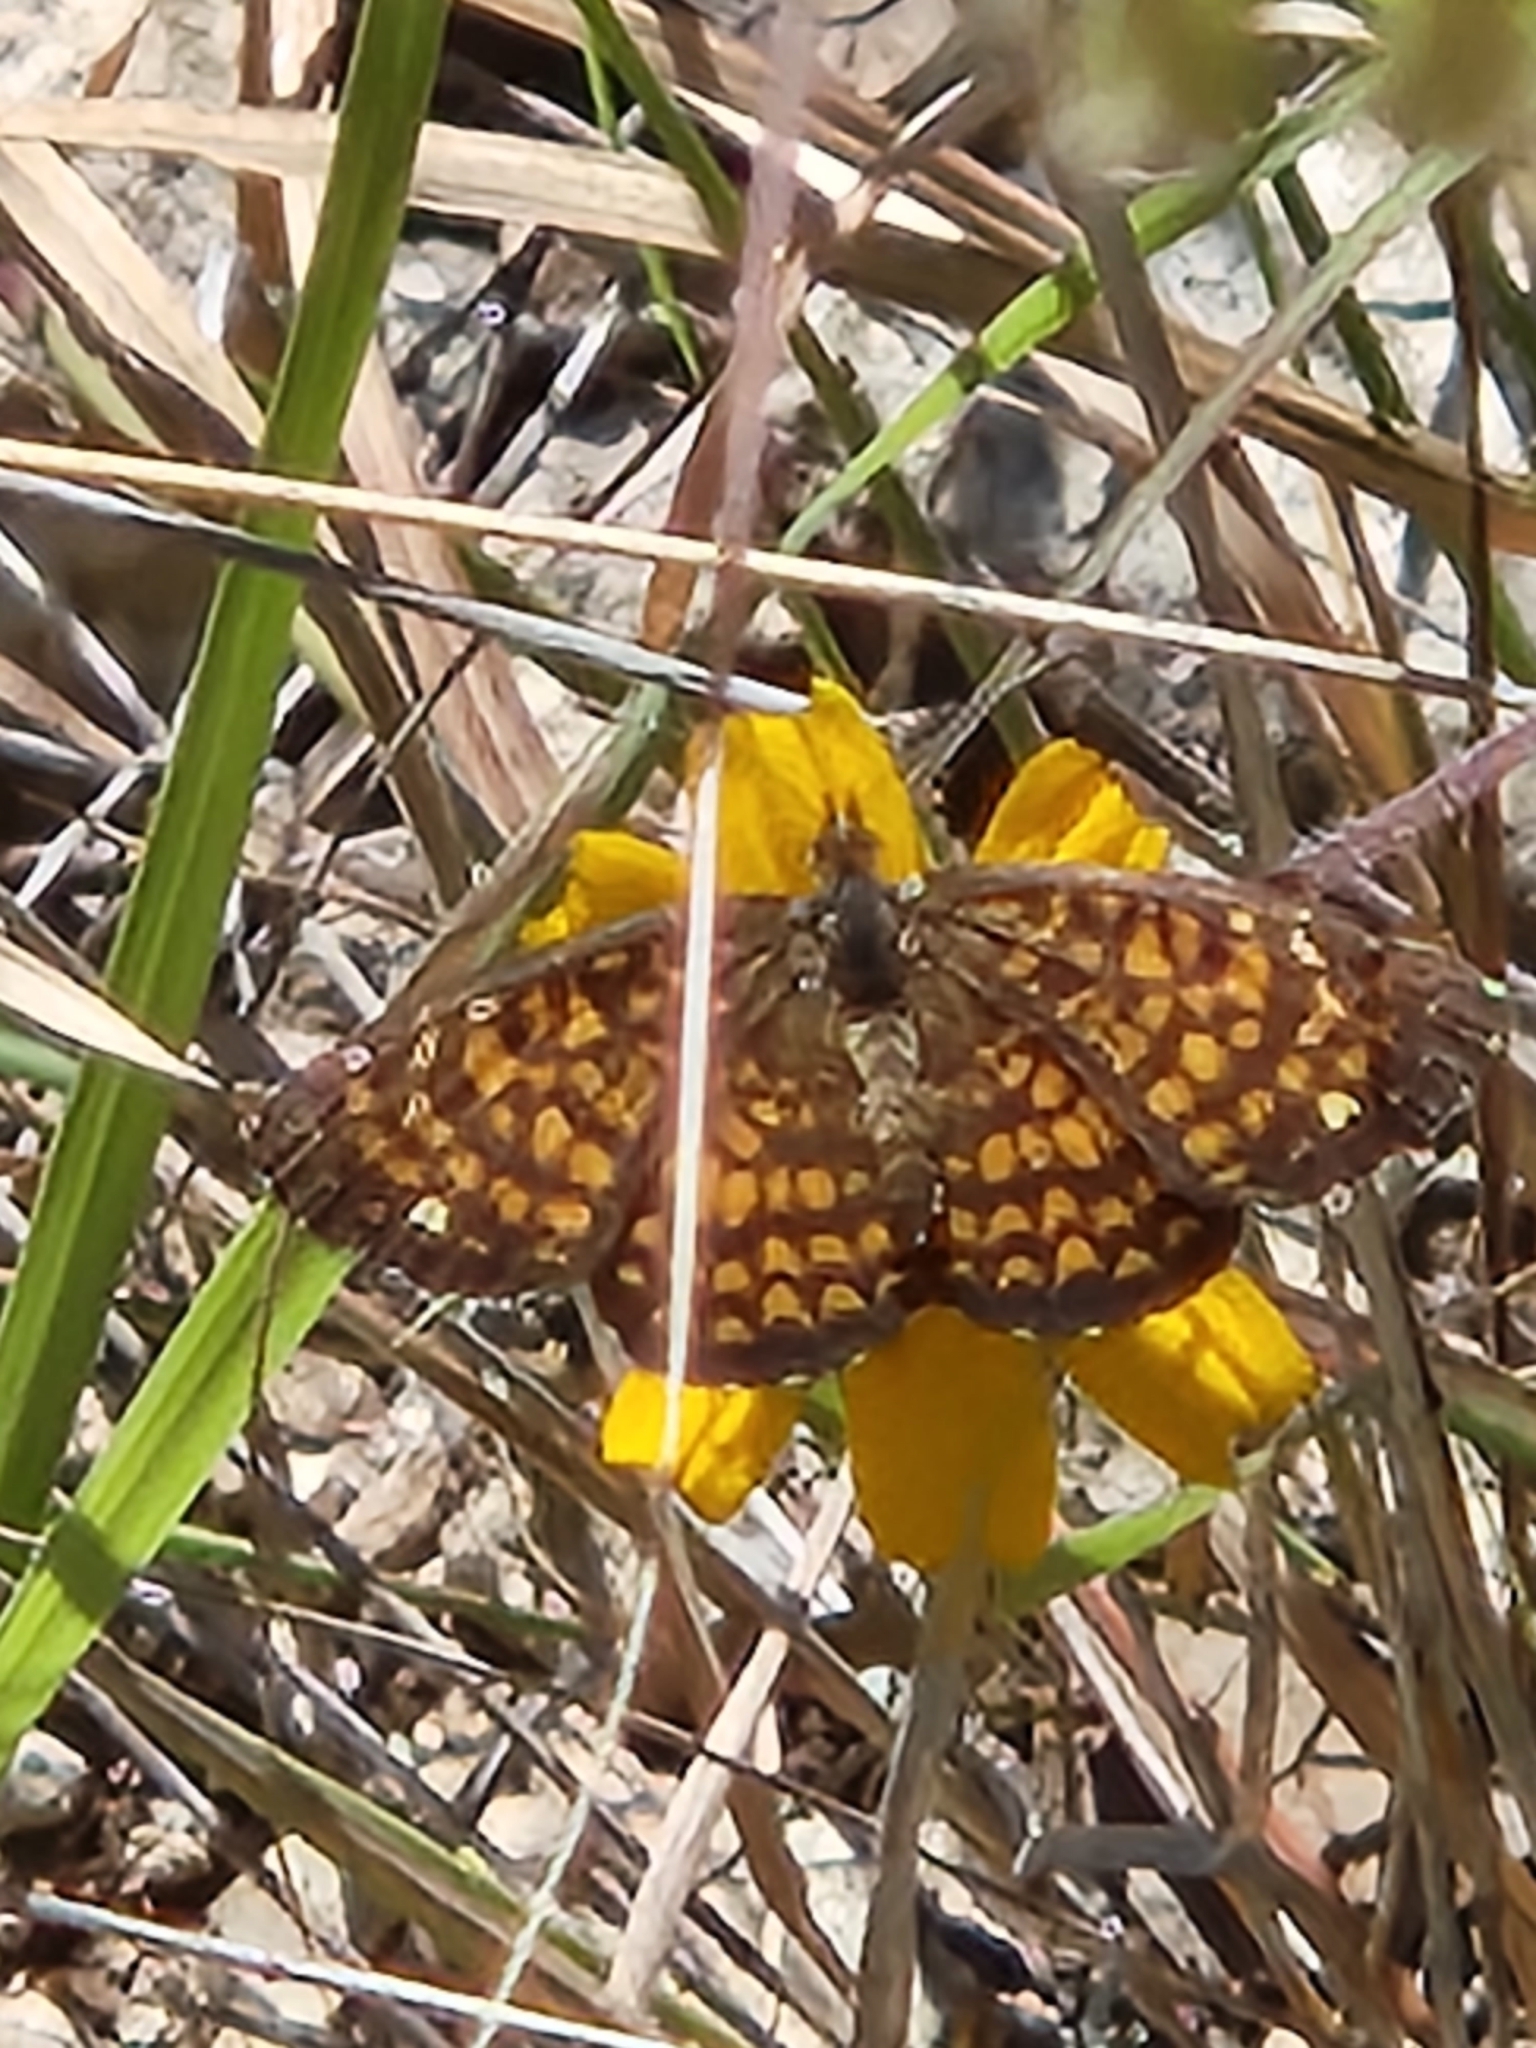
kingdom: Animalia
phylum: Arthropoda
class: Insecta
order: Lepidoptera
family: Nymphalidae
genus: Texola
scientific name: Texola elada
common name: Elada checkerspot
